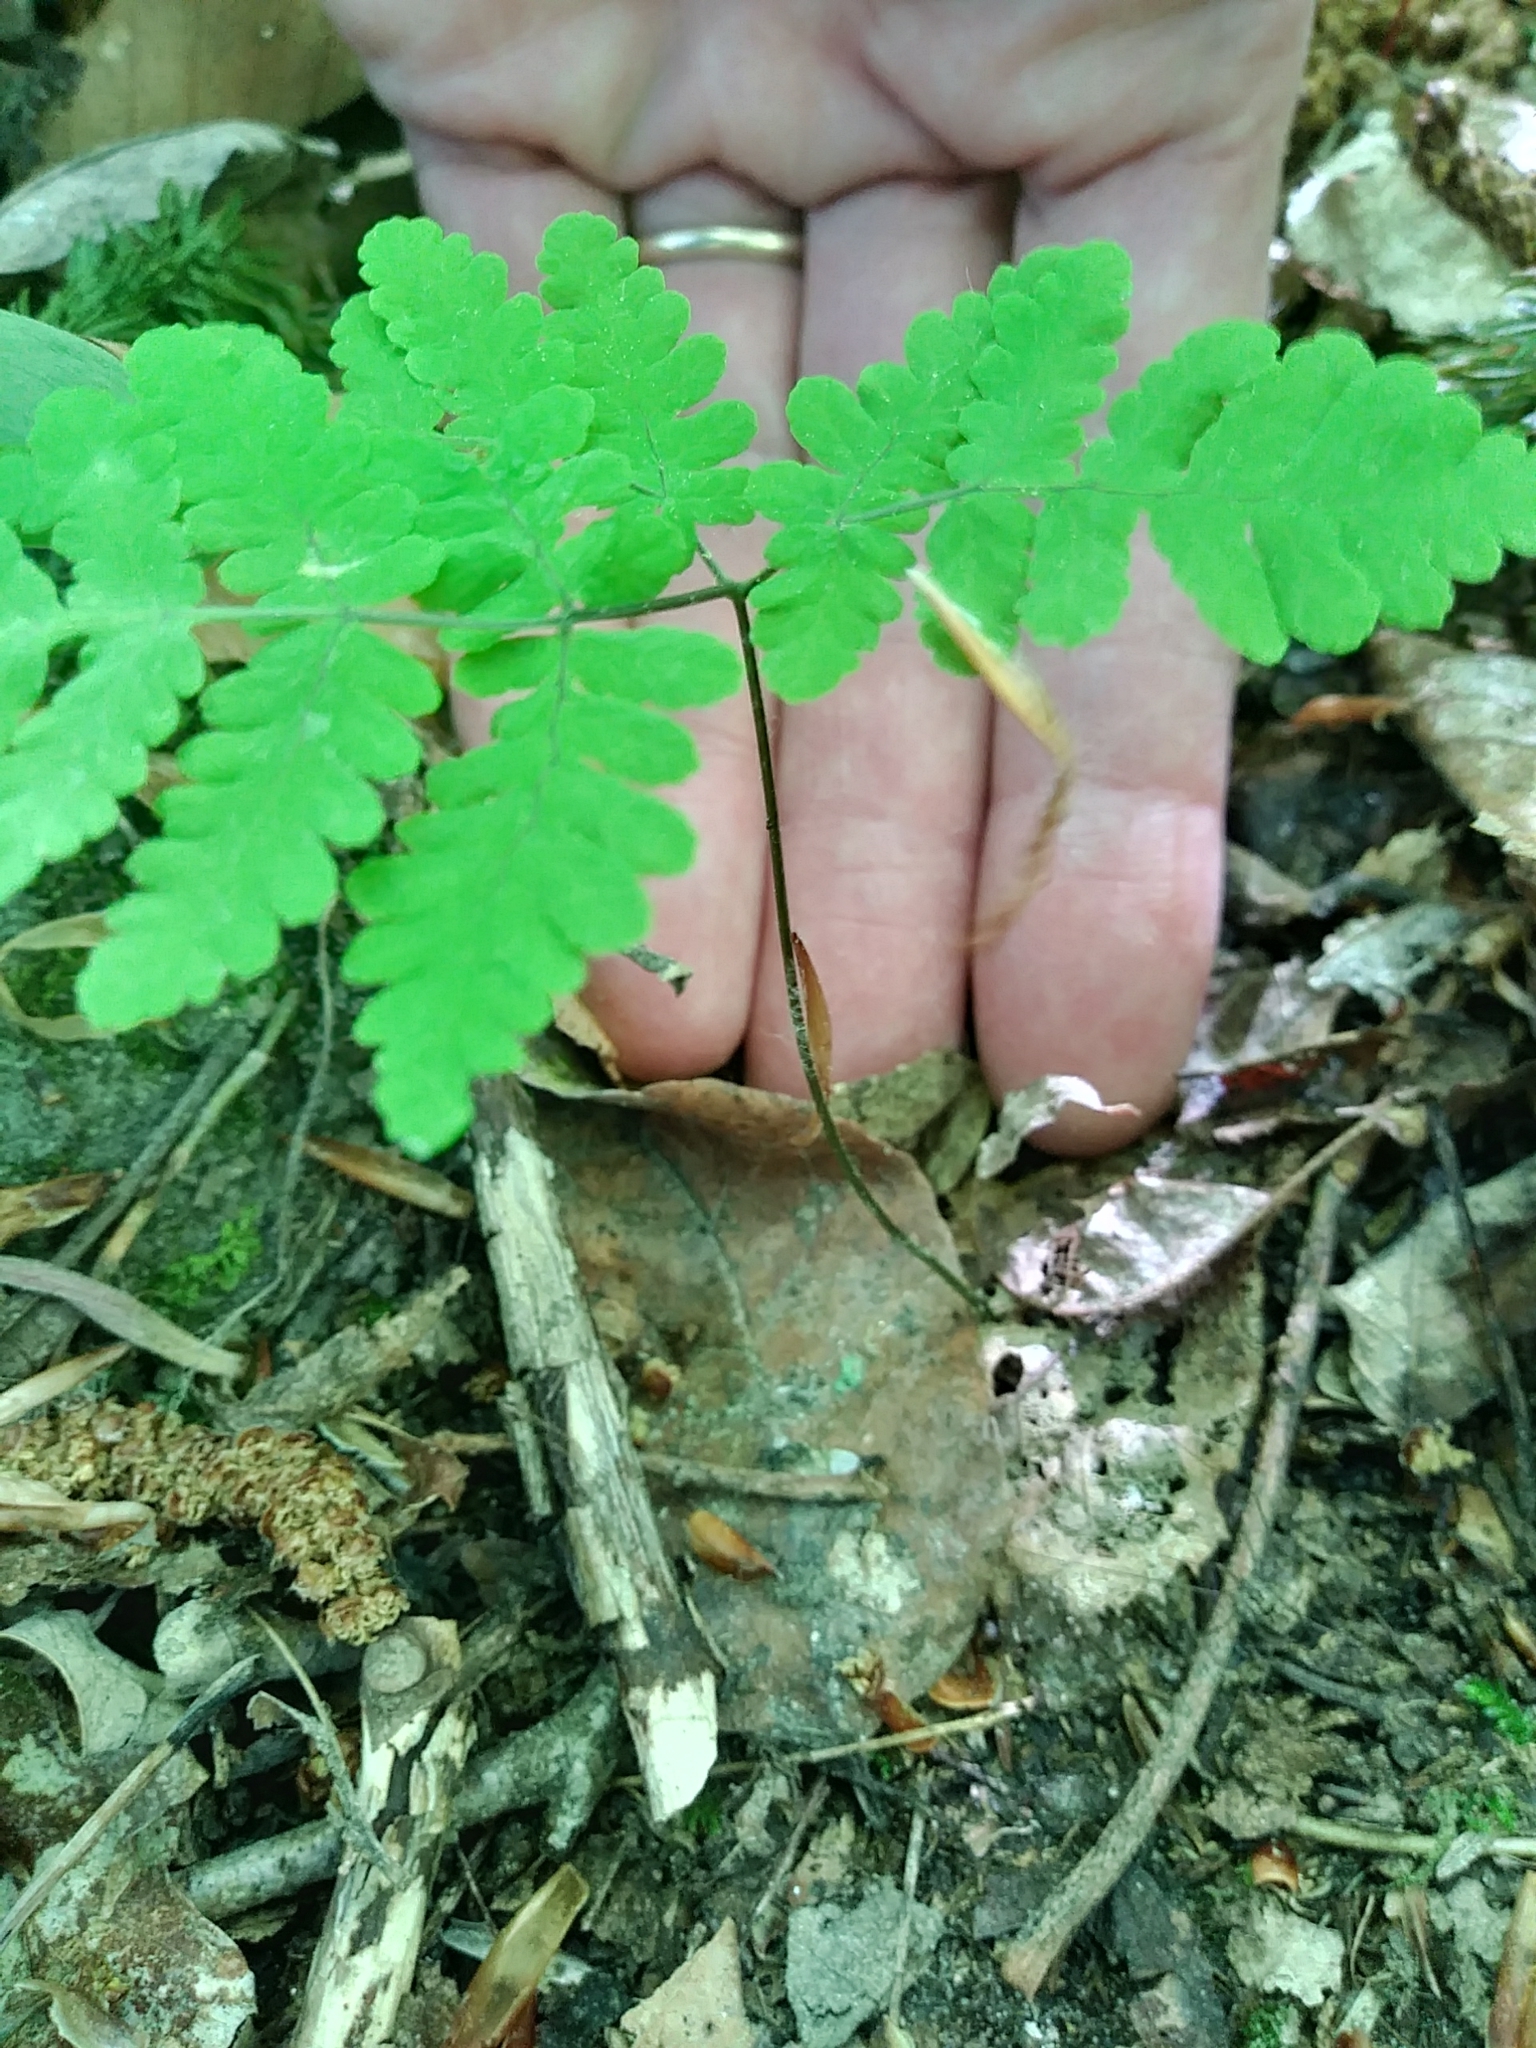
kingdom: Plantae
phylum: Tracheophyta
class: Polypodiopsida
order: Polypodiales
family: Cystopteridaceae
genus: Gymnocarpium
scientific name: Gymnocarpium dryopteris
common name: Oak fern
